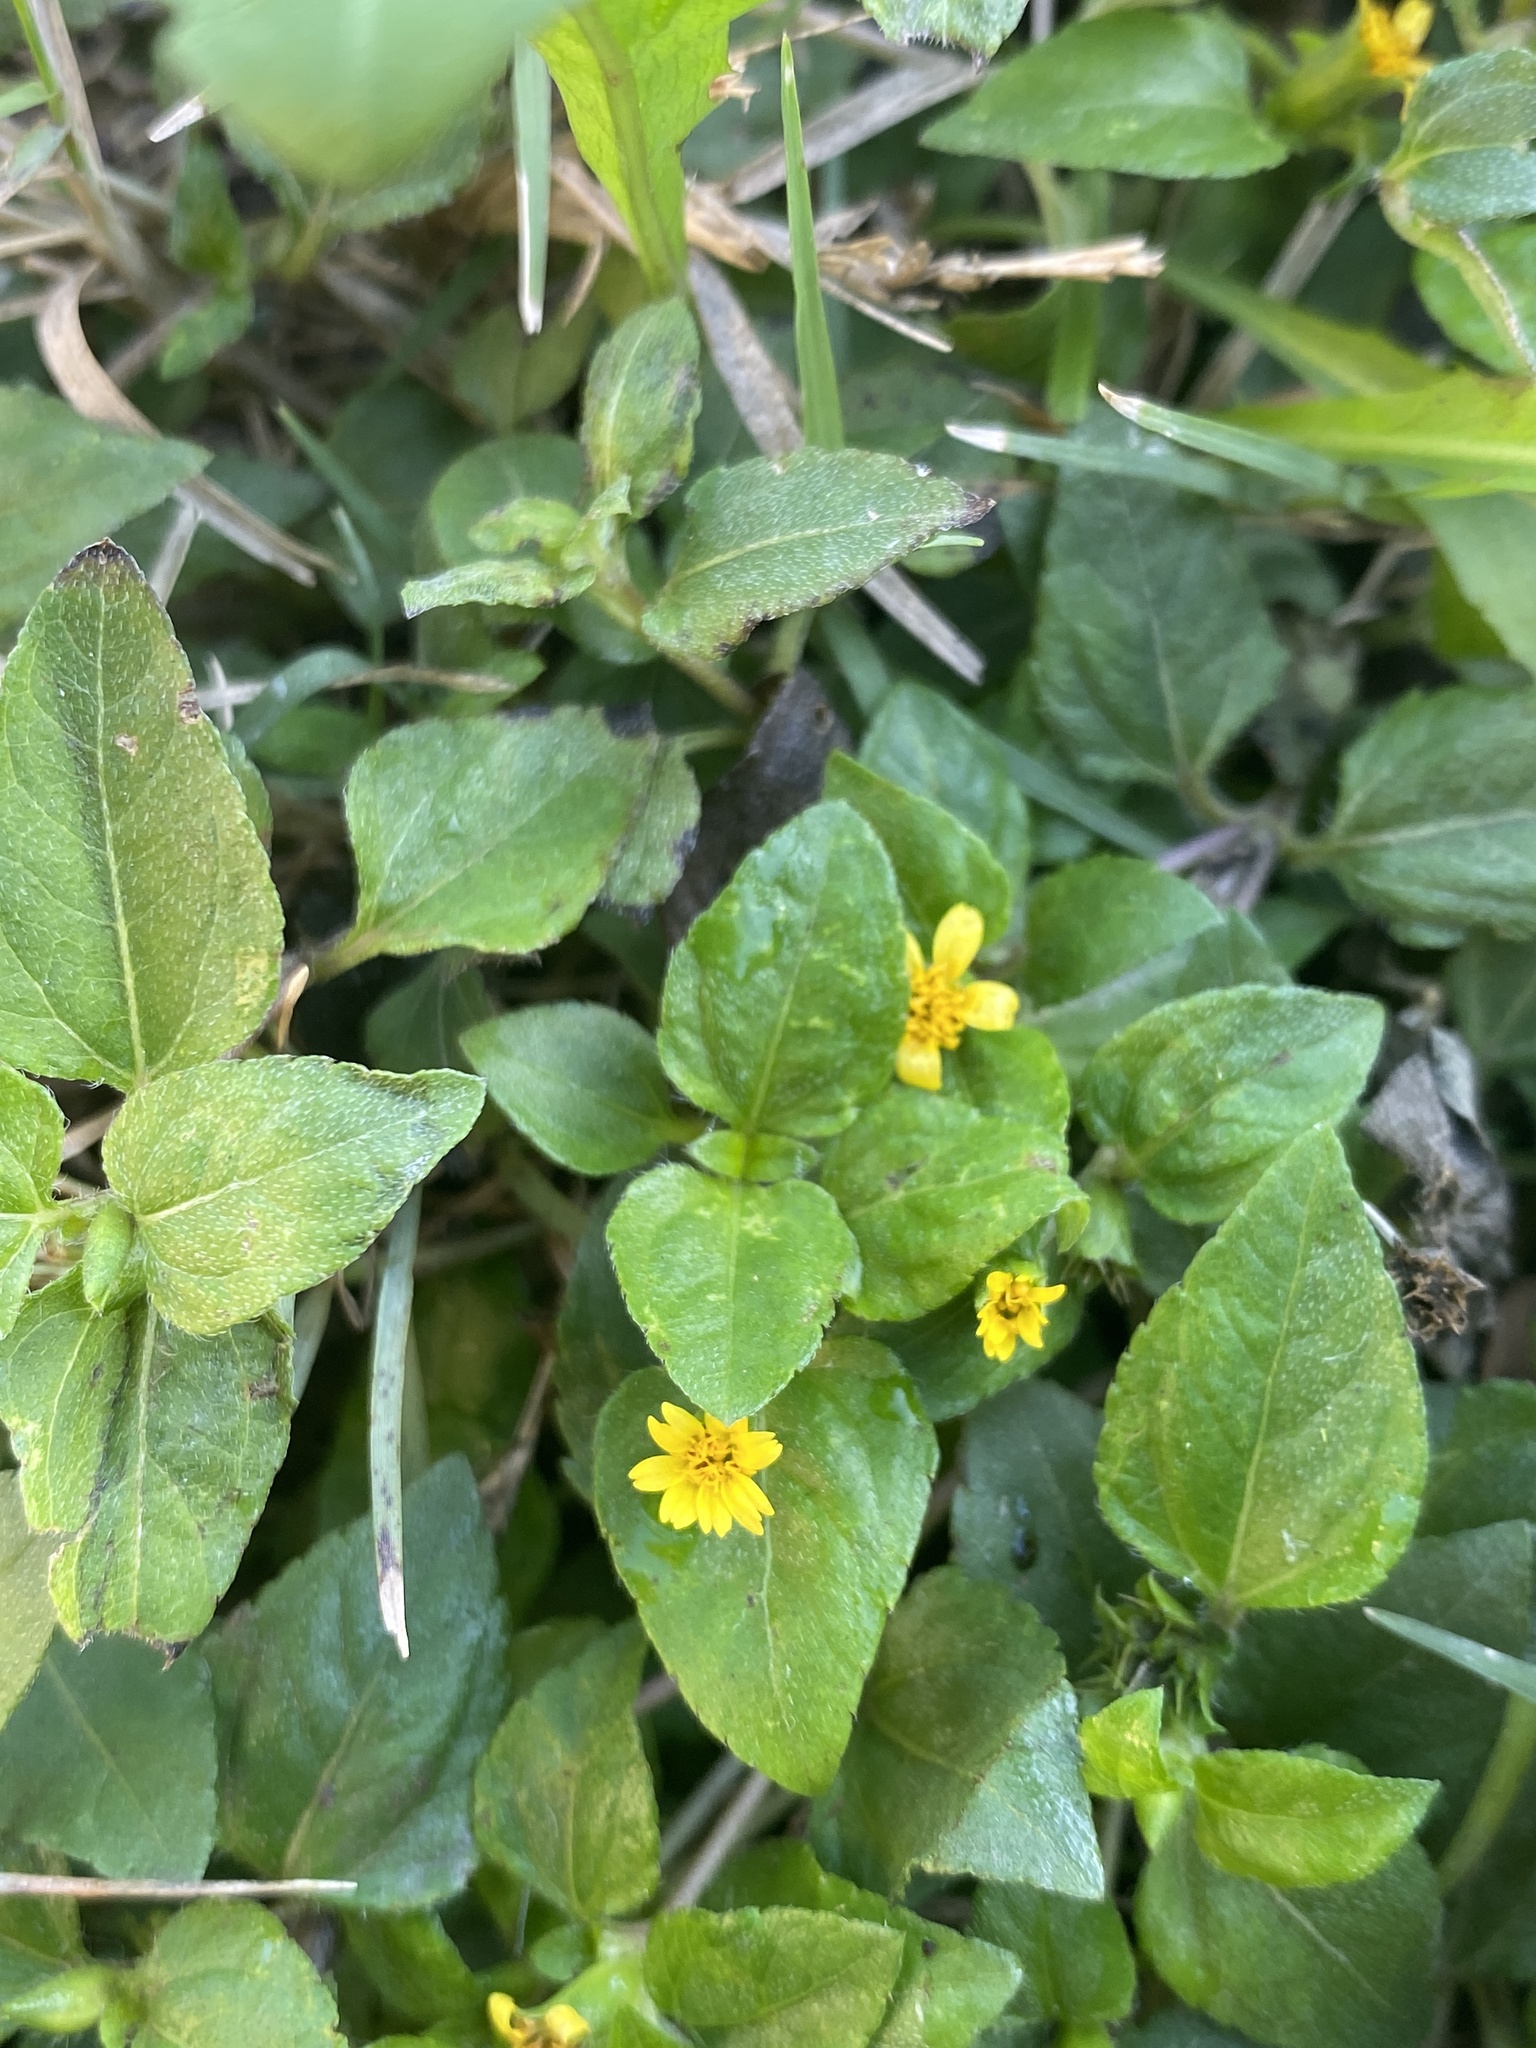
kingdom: Plantae
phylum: Tracheophyta
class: Magnoliopsida
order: Asterales
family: Asteraceae
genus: Calyptocarpus
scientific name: Calyptocarpus vialis
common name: Straggler daisy
